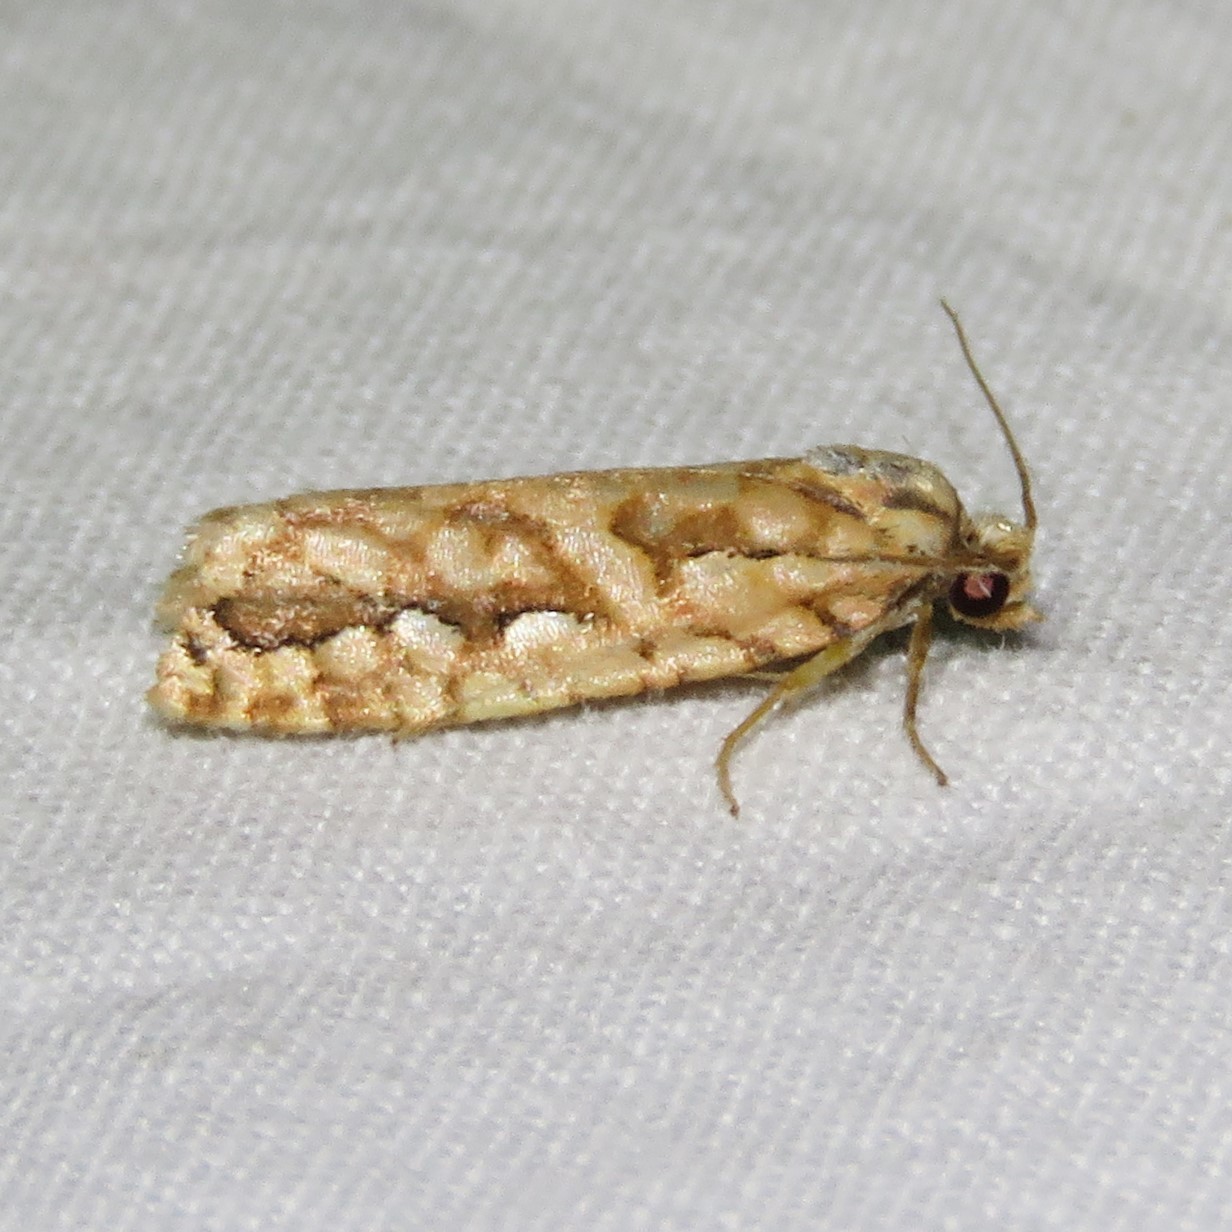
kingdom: Animalia
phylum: Arthropoda
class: Insecta
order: Lepidoptera
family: Tortricidae
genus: Diedra
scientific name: Diedra cockerellana
